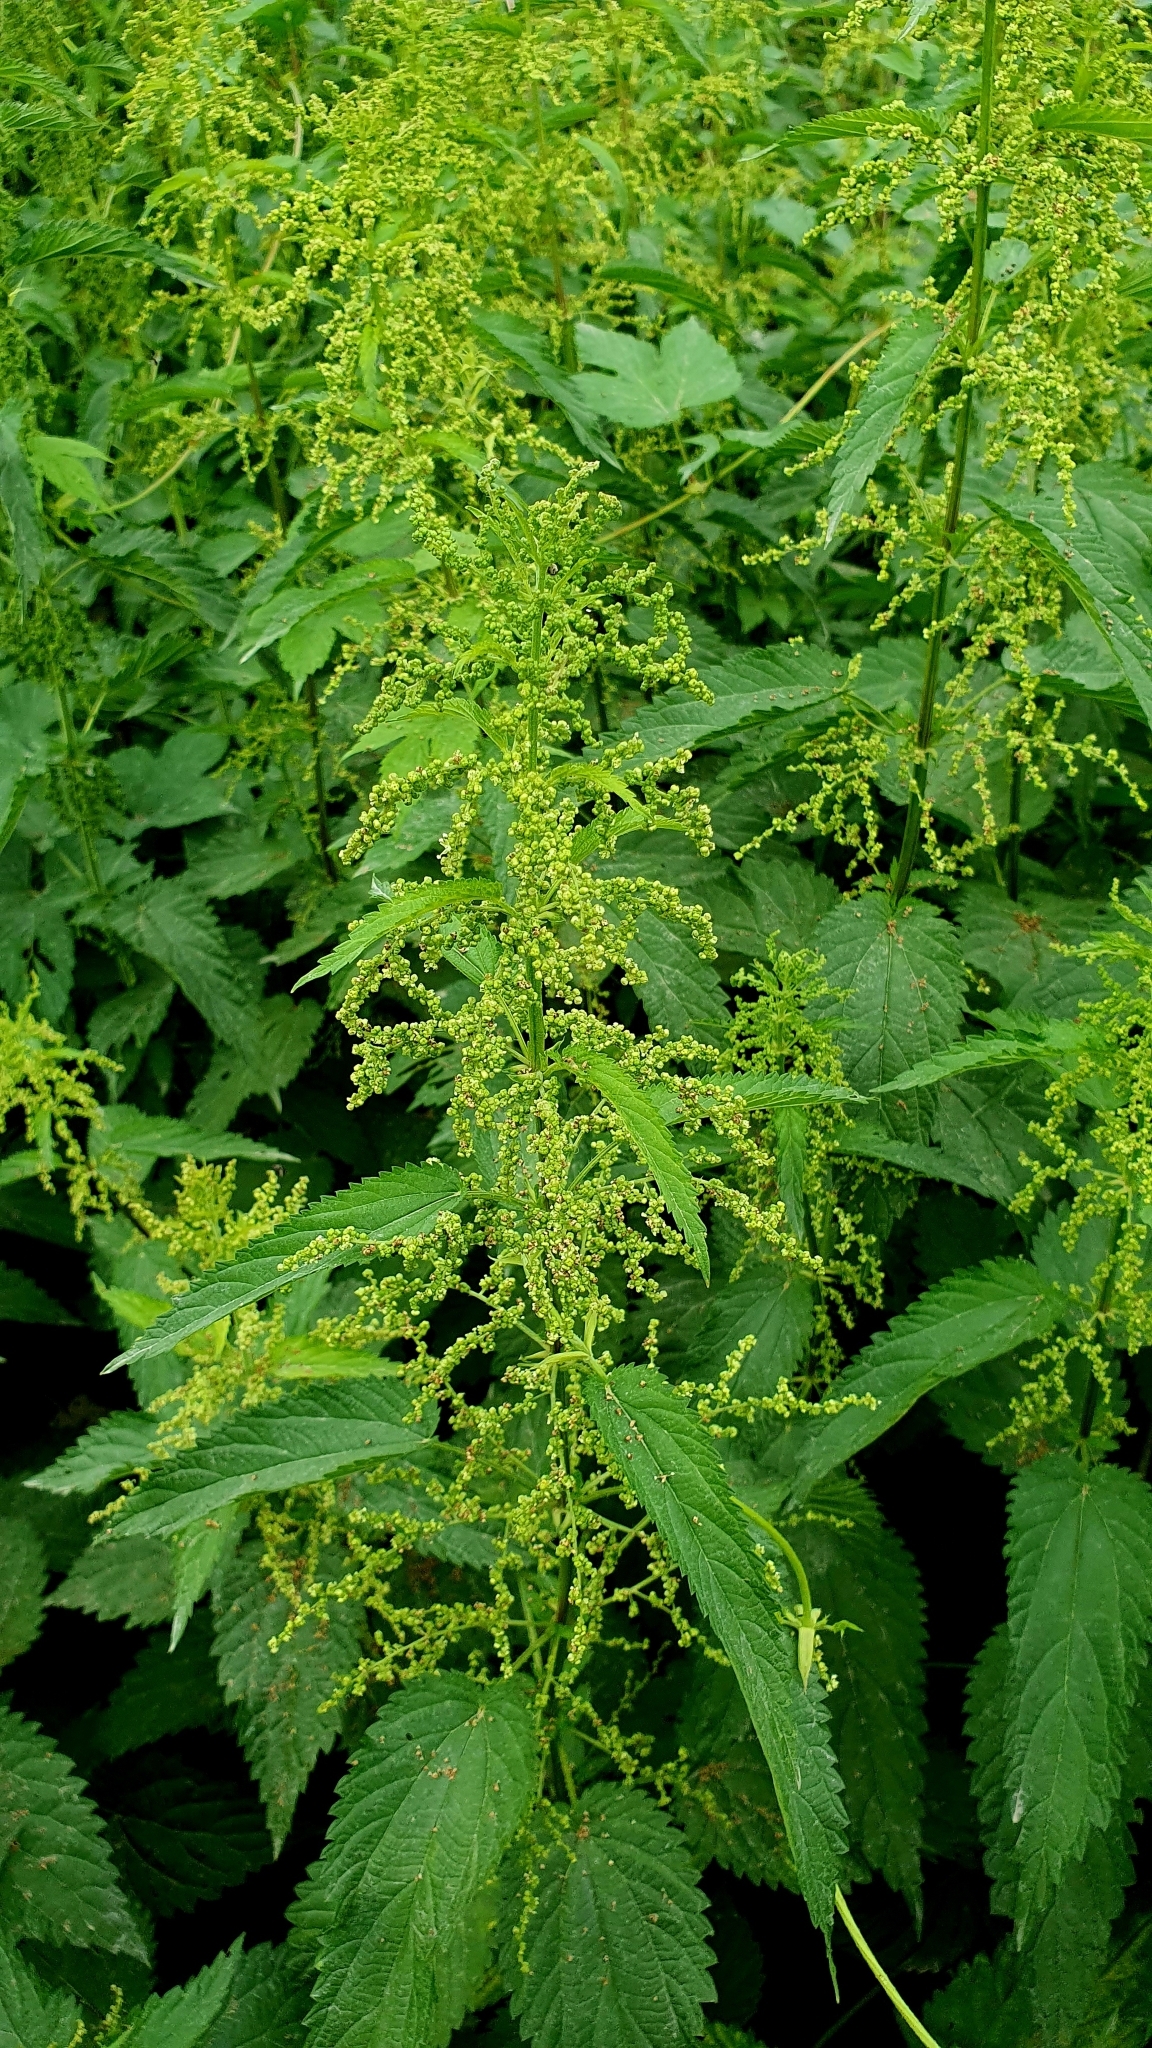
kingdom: Plantae
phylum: Tracheophyta
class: Magnoliopsida
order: Rosales
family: Urticaceae
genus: Urtica
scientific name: Urtica dioica
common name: Common nettle
